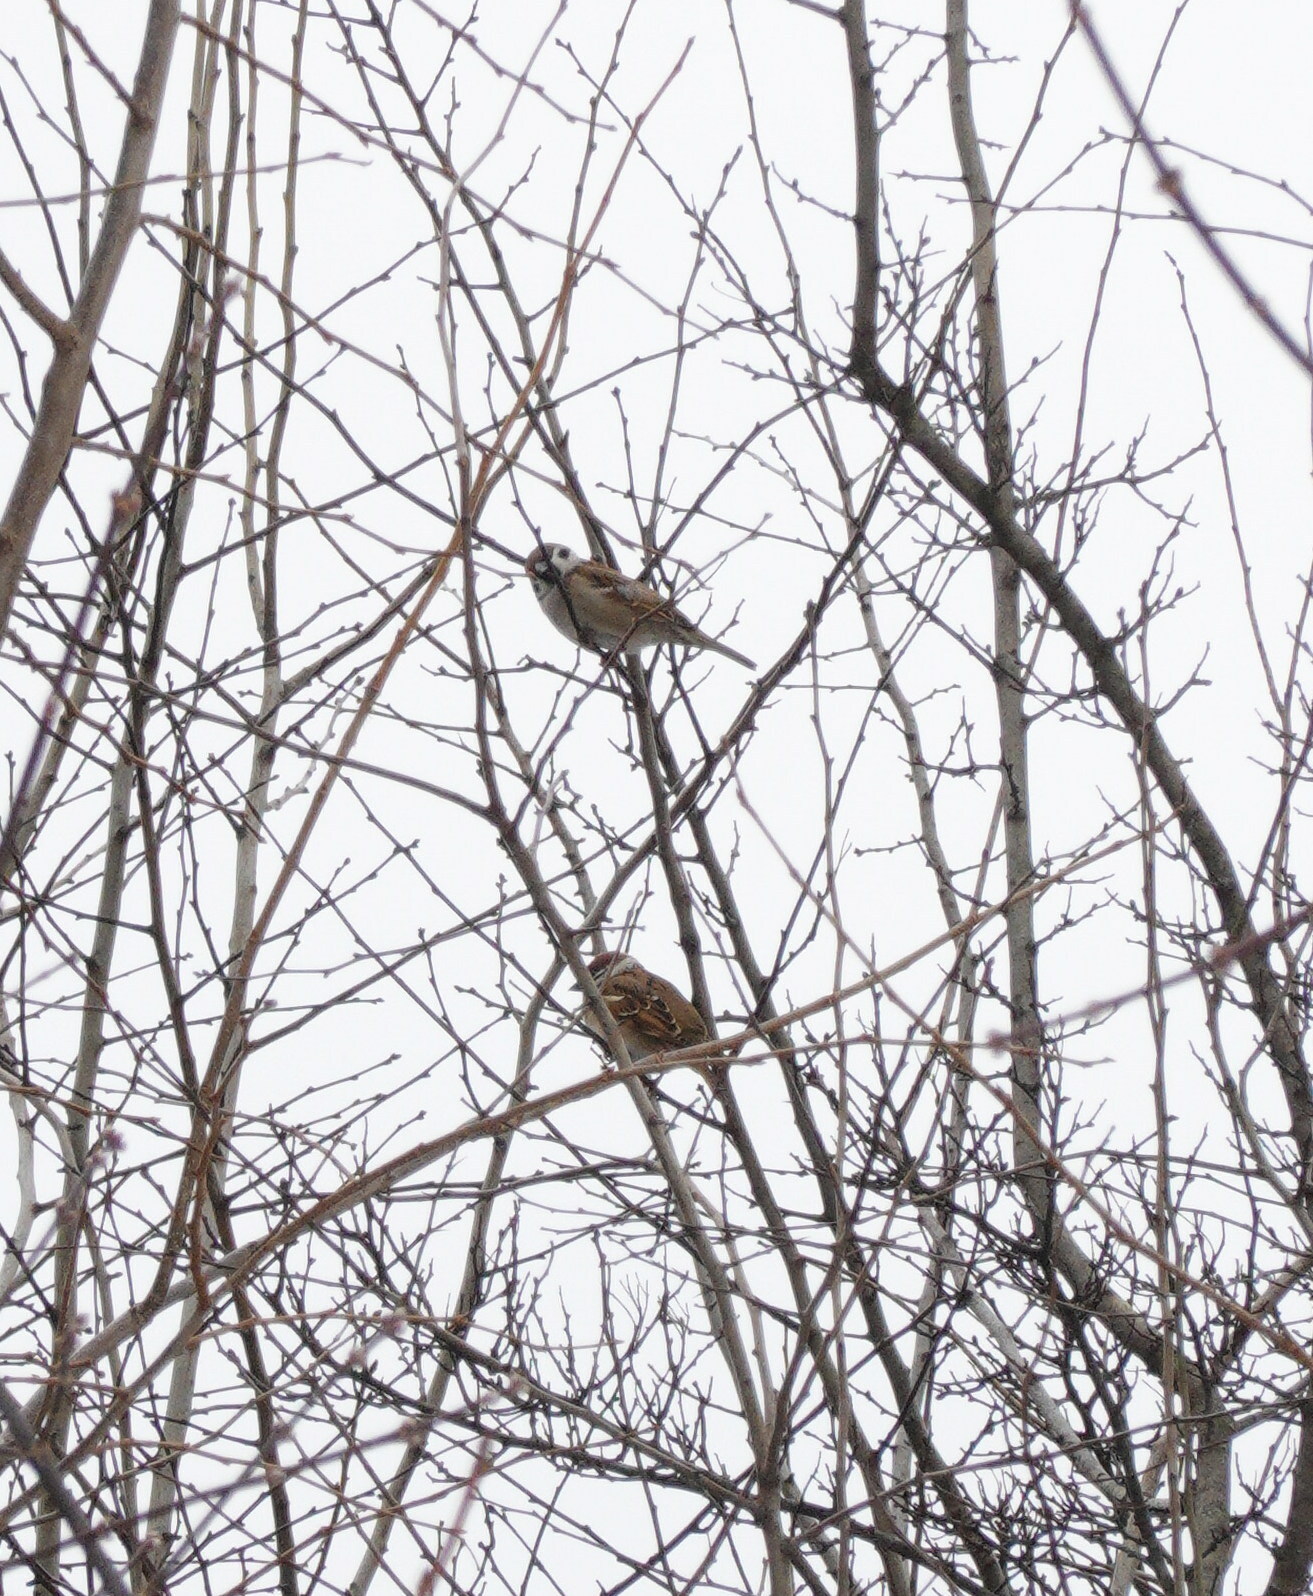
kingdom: Animalia
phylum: Chordata
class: Aves
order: Passeriformes
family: Passeridae
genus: Passer
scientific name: Passer montanus
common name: Eurasian tree sparrow
